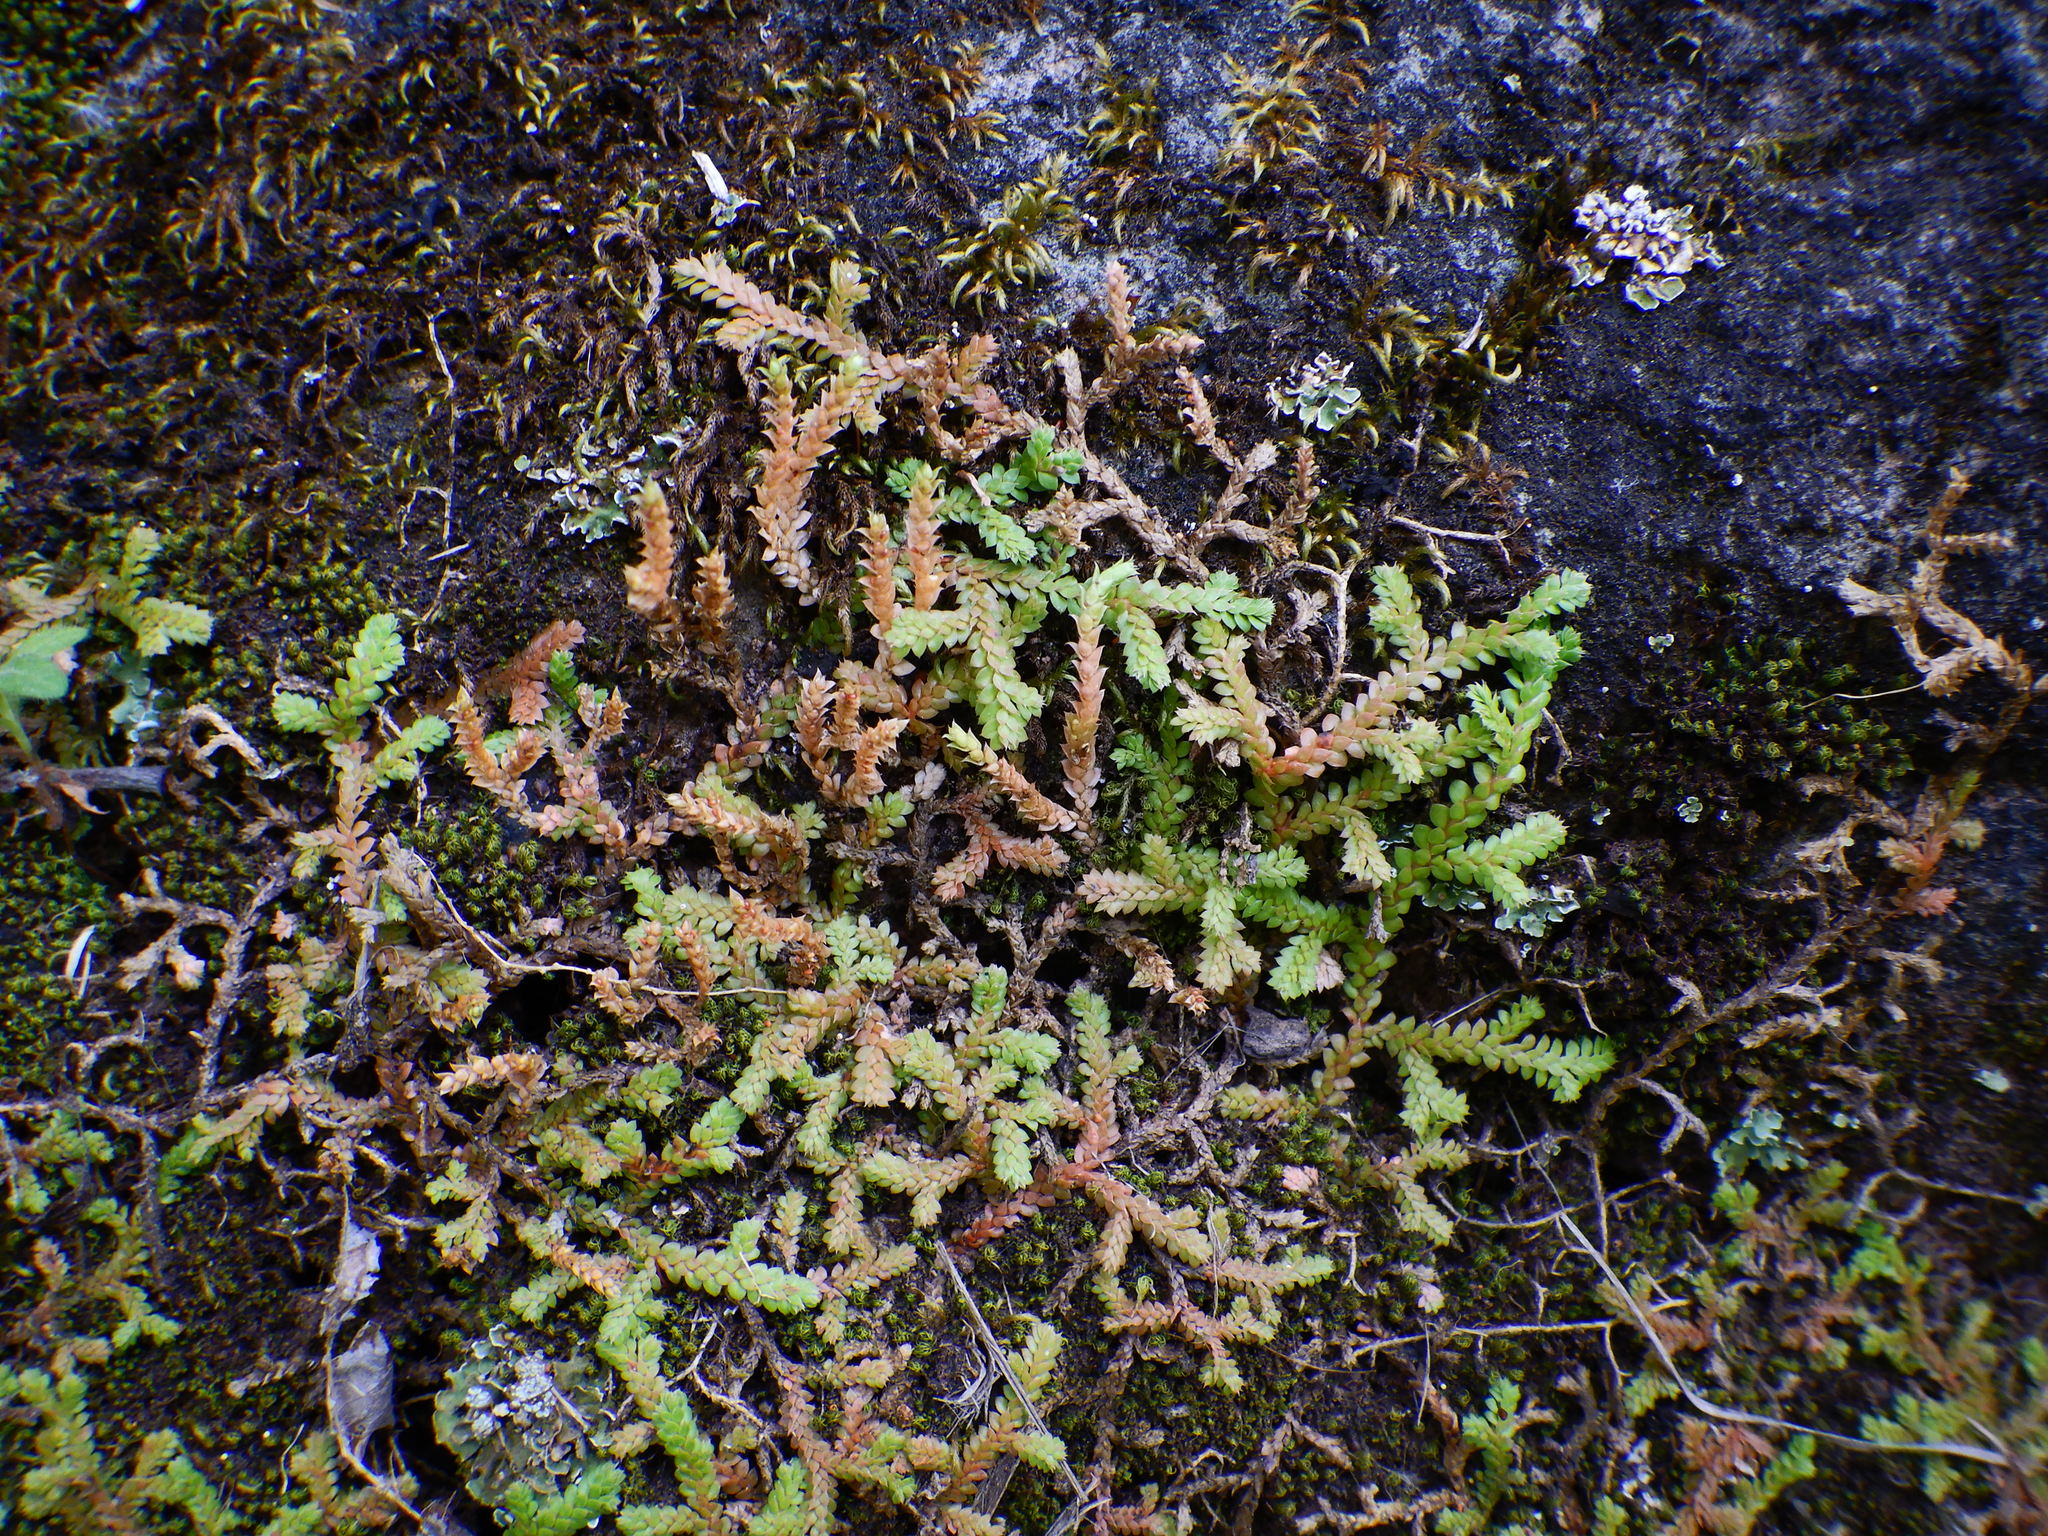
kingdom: Plantae
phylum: Tracheophyta
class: Lycopodiopsida
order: Selaginellales
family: Selaginellaceae
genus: Selaginella
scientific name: Selaginella denticulata
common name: Toothed-leaved clubmoss
